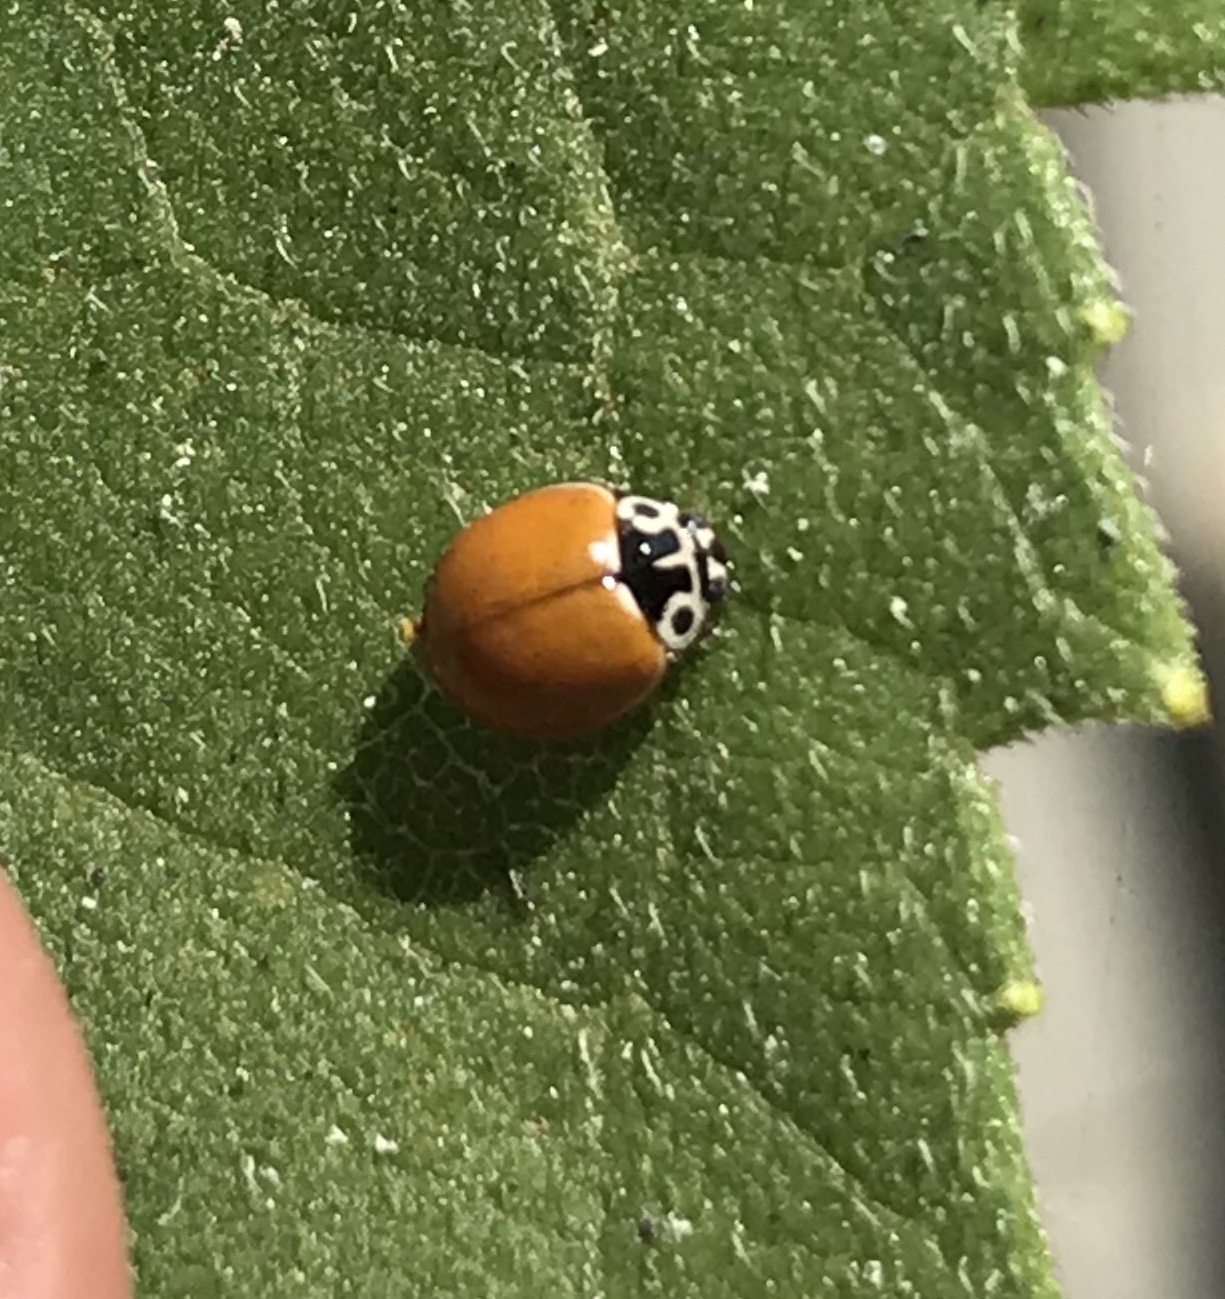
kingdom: Animalia
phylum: Arthropoda
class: Insecta
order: Coleoptera
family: Coccinellidae
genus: Cycloneda
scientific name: Cycloneda polita
